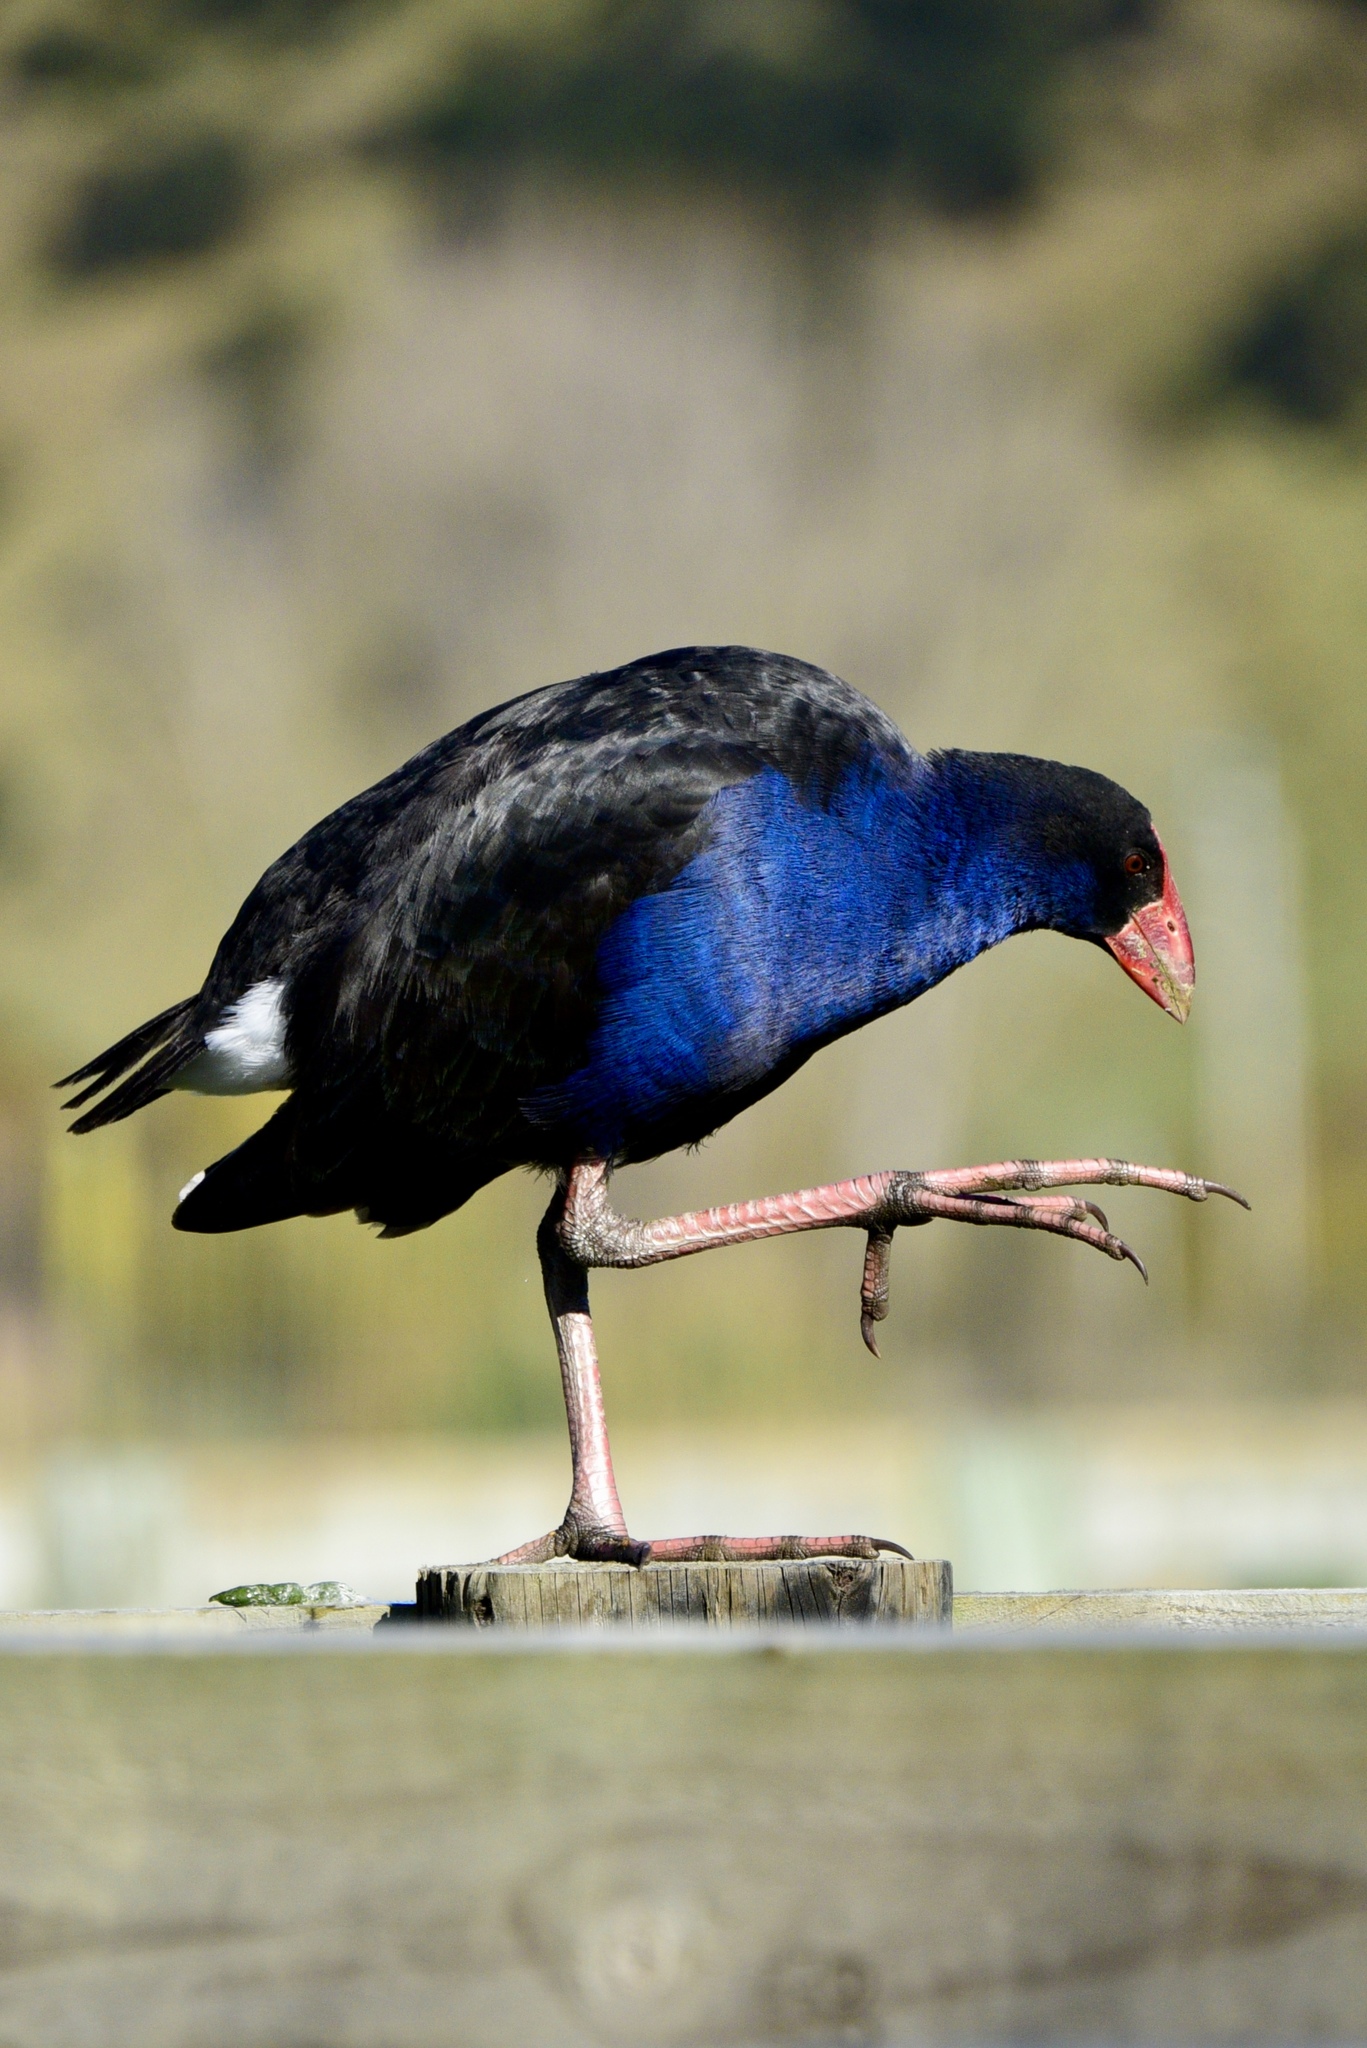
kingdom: Animalia
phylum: Chordata
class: Aves
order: Gruiformes
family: Rallidae
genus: Porphyrio
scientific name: Porphyrio melanotus
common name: Australasian swamphen
